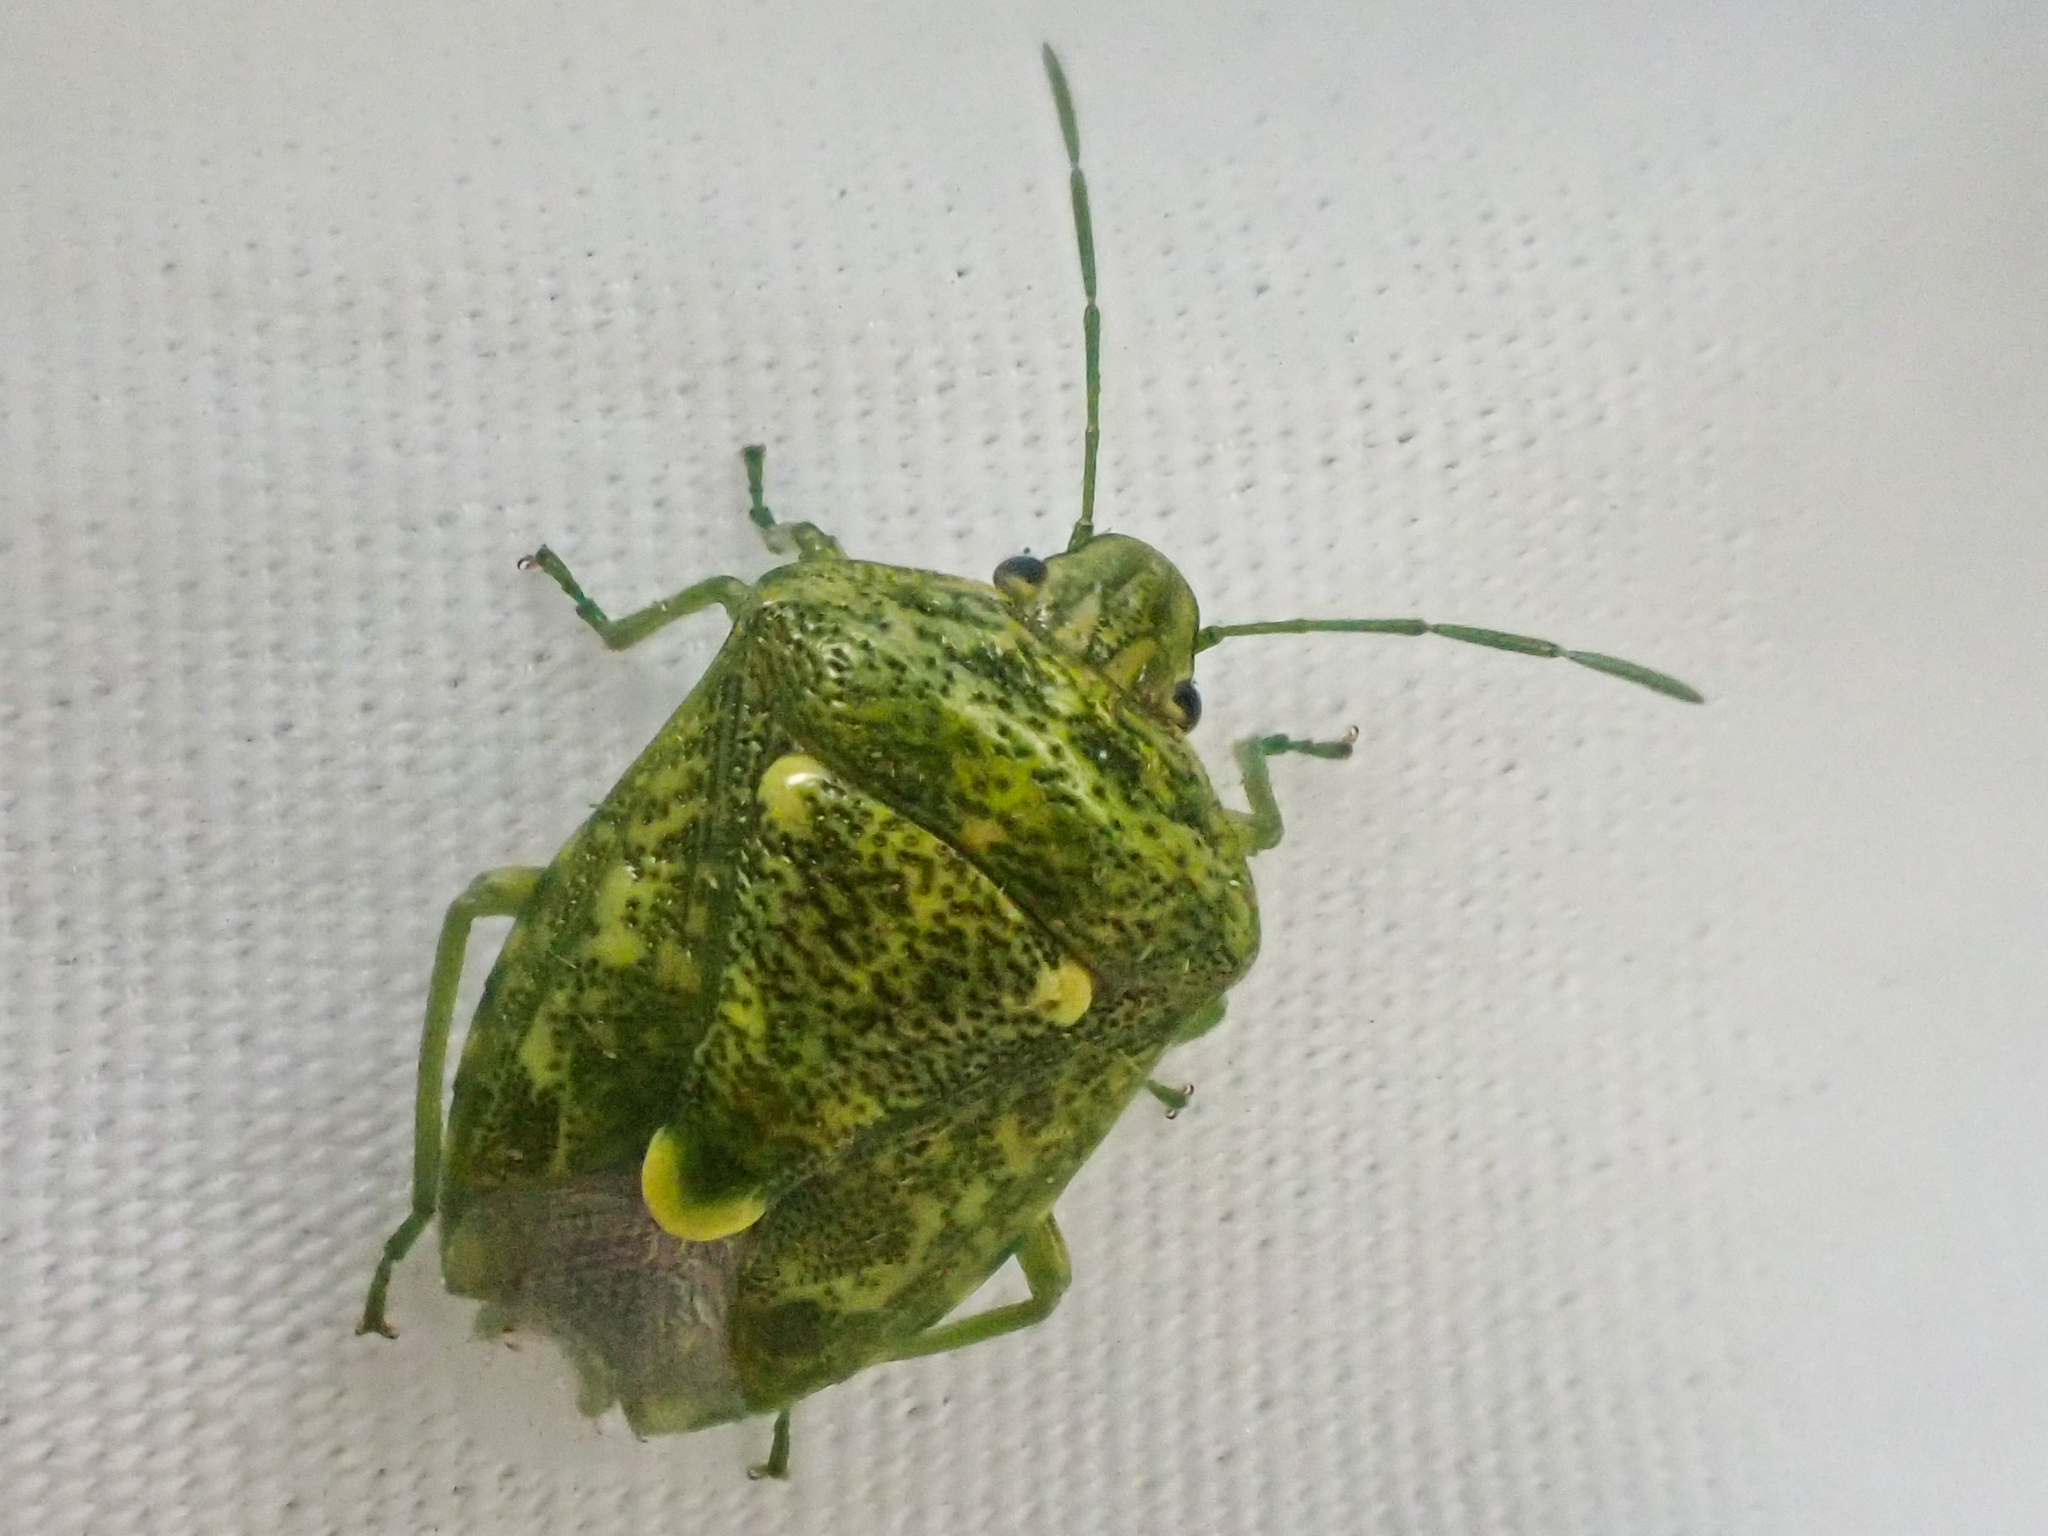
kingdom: Animalia
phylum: Arthropoda
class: Insecta
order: Hemiptera
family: Pentatomidae
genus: Banasa
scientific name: Banasa euchlora
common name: Cedar berry bug
